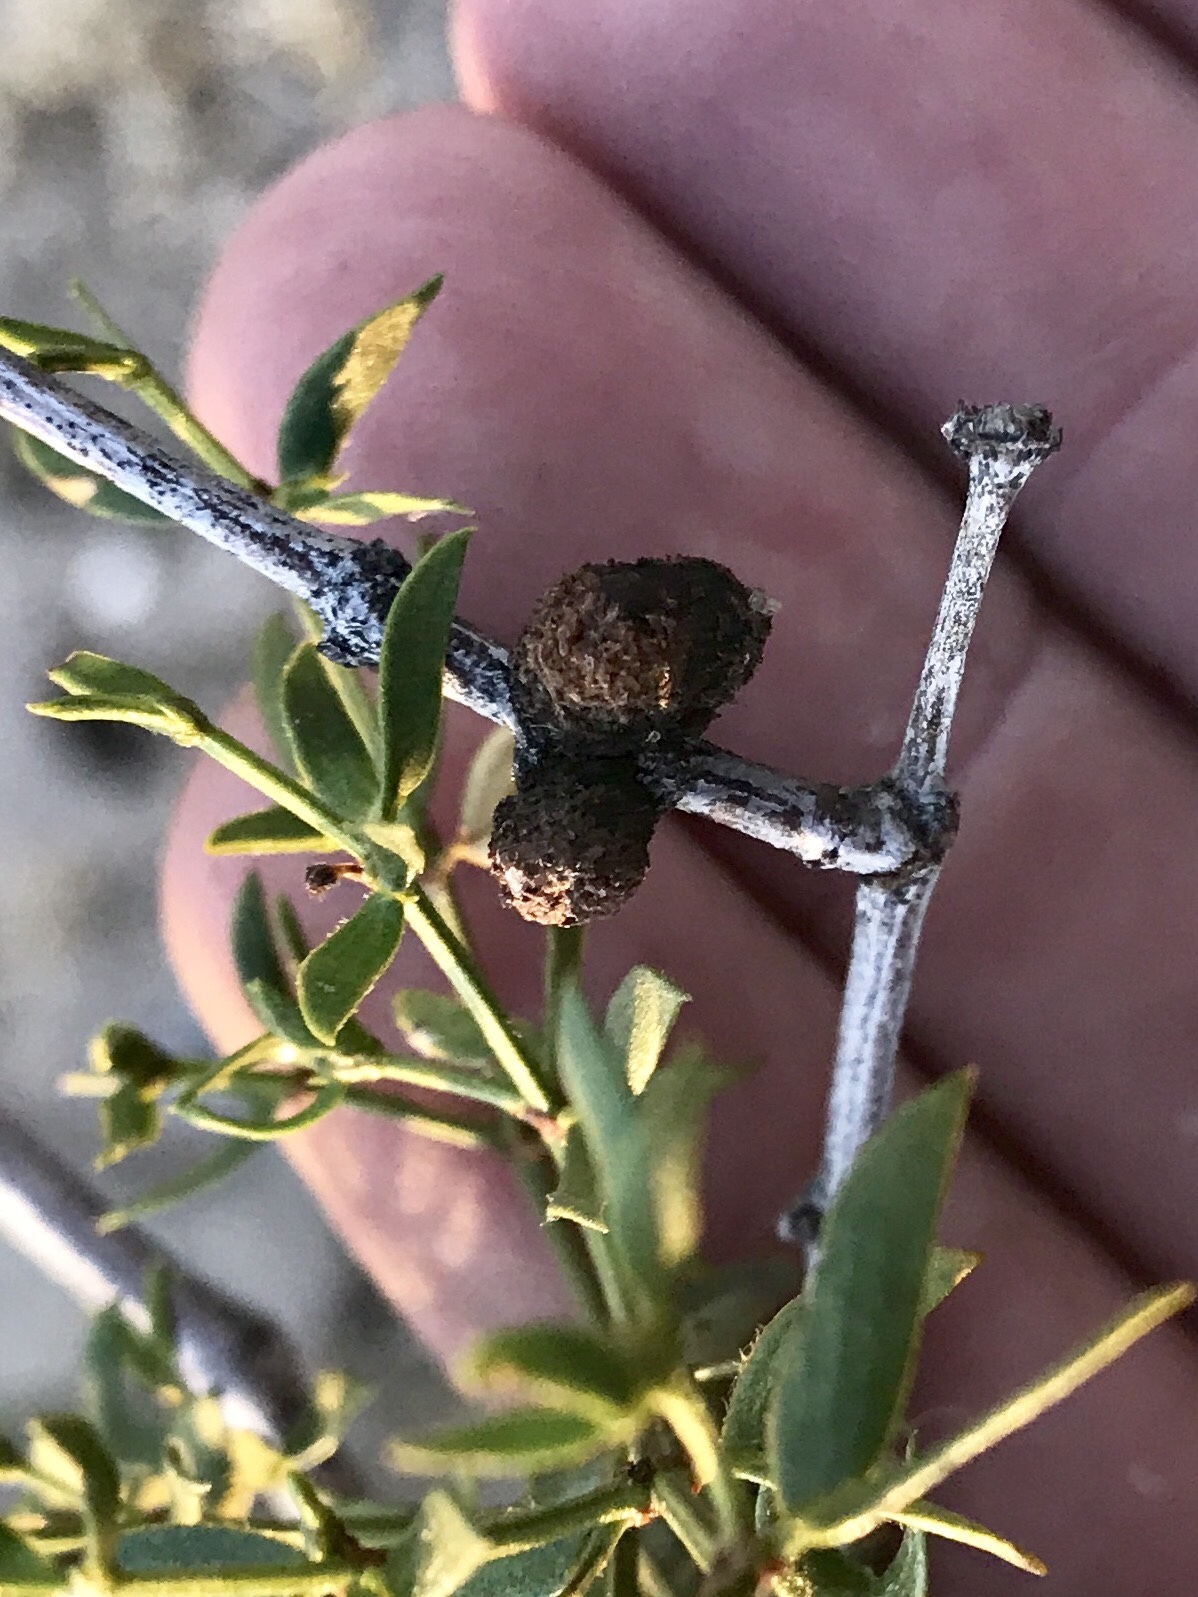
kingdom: Animalia
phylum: Arthropoda
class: Insecta
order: Diptera
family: Cecidomyiidae
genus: Asphondylia
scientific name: Asphondylia resinosa
